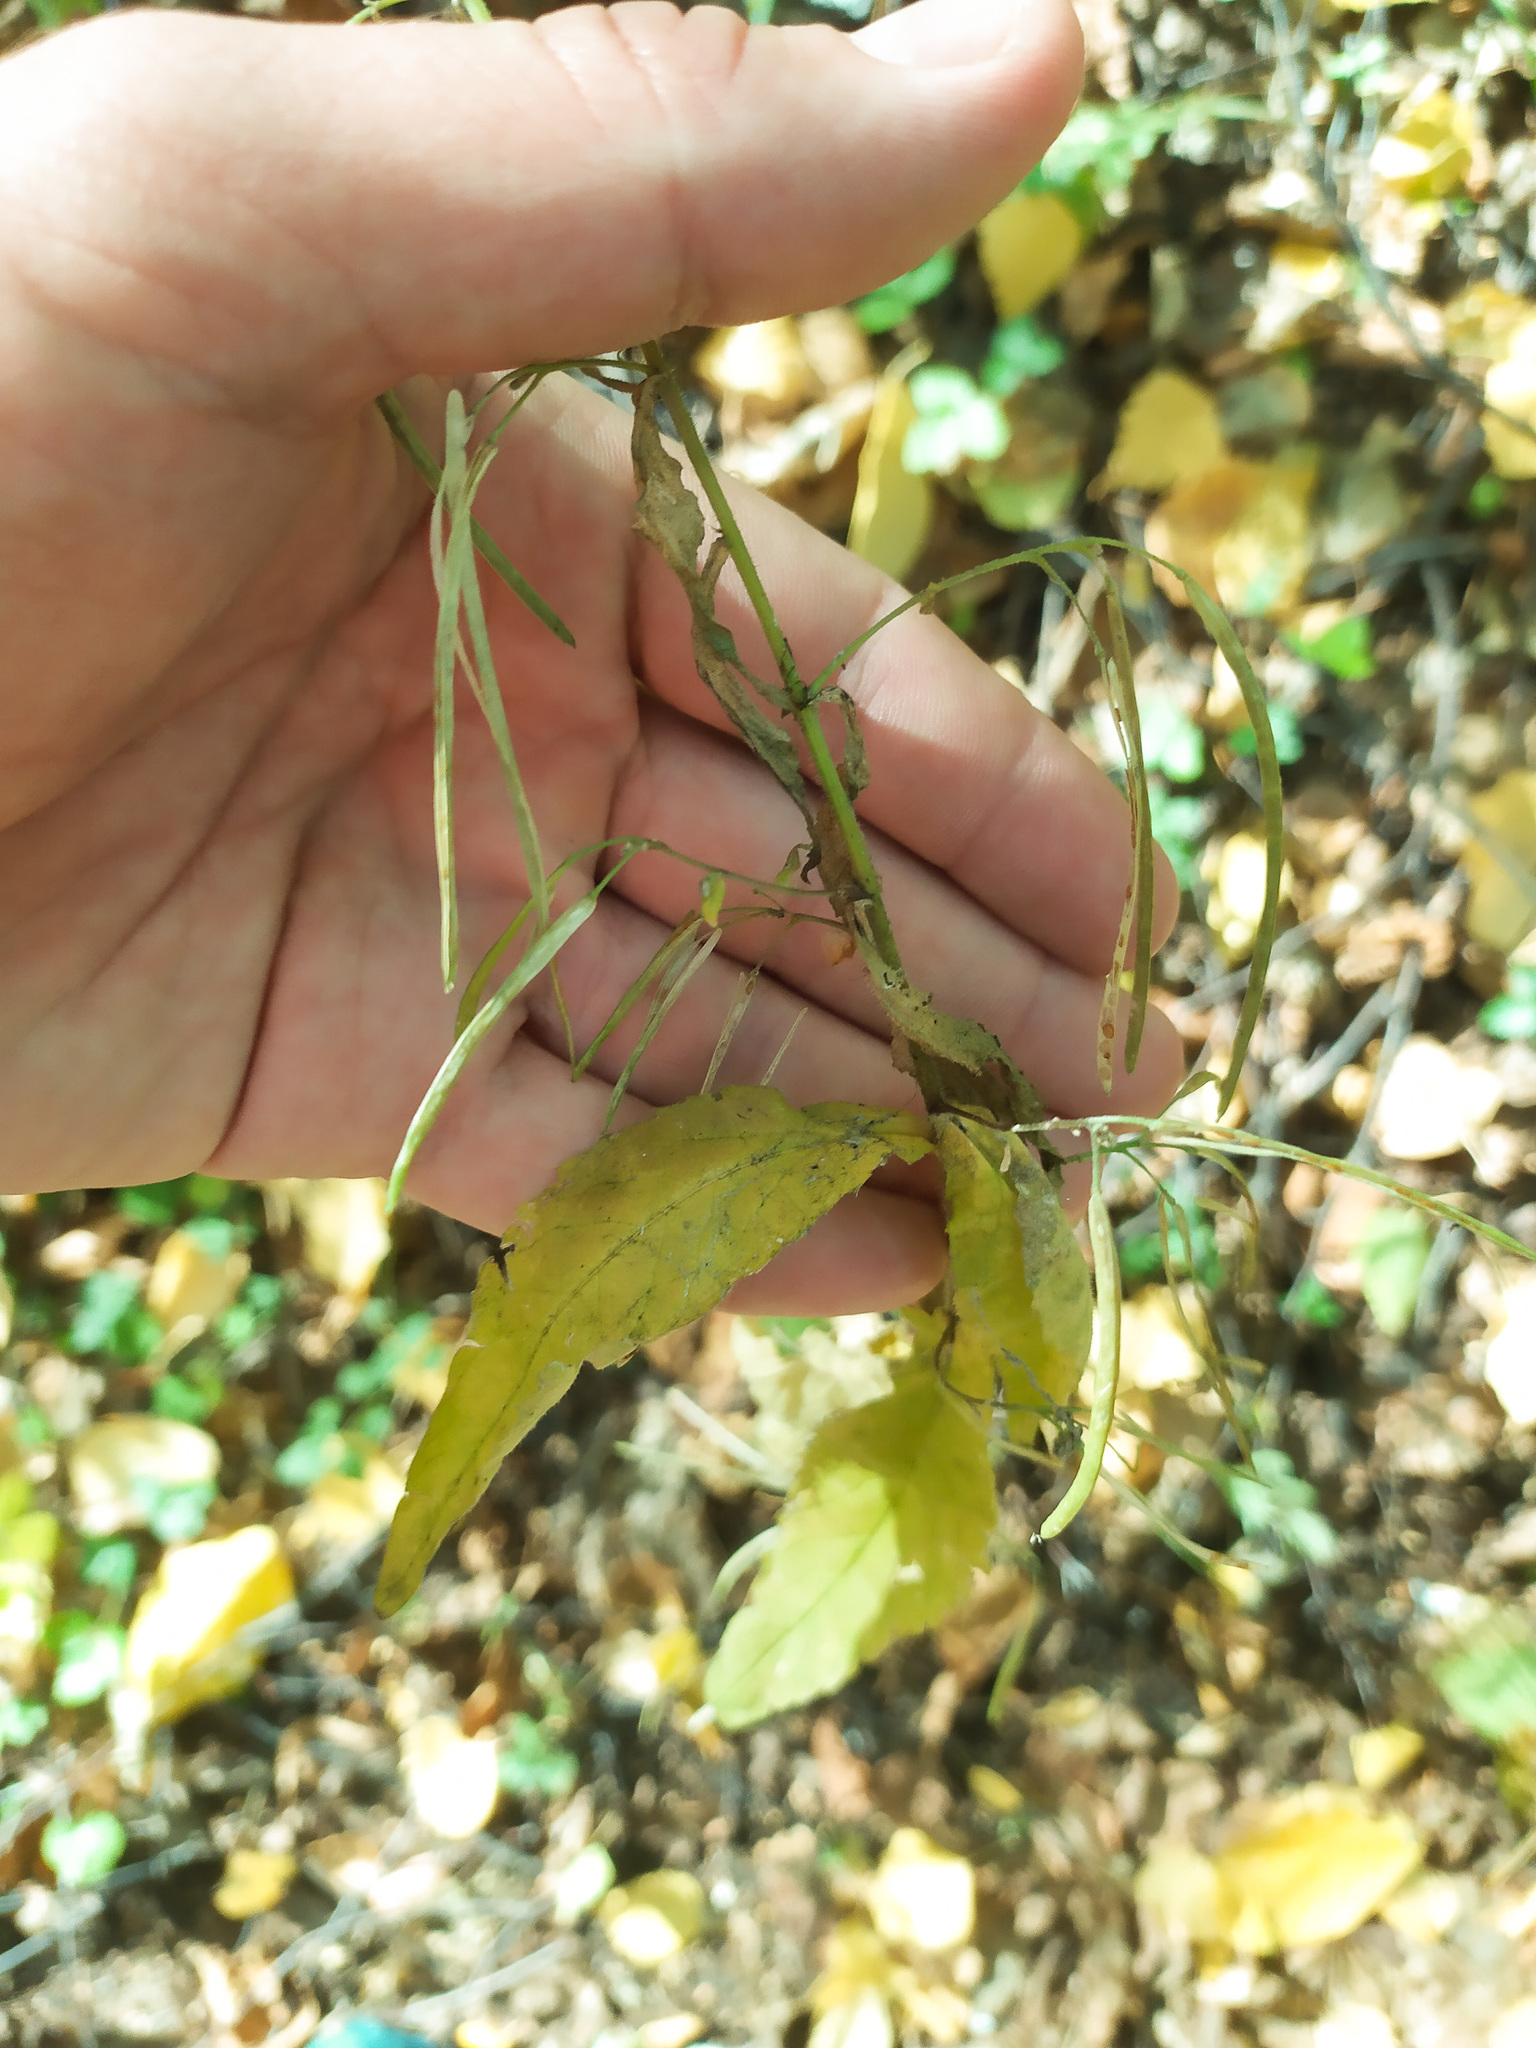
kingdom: Plantae
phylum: Tracheophyta
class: Magnoliopsida
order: Brassicales
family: Brassicaceae
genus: Catolobus
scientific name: Catolobus pendulus
